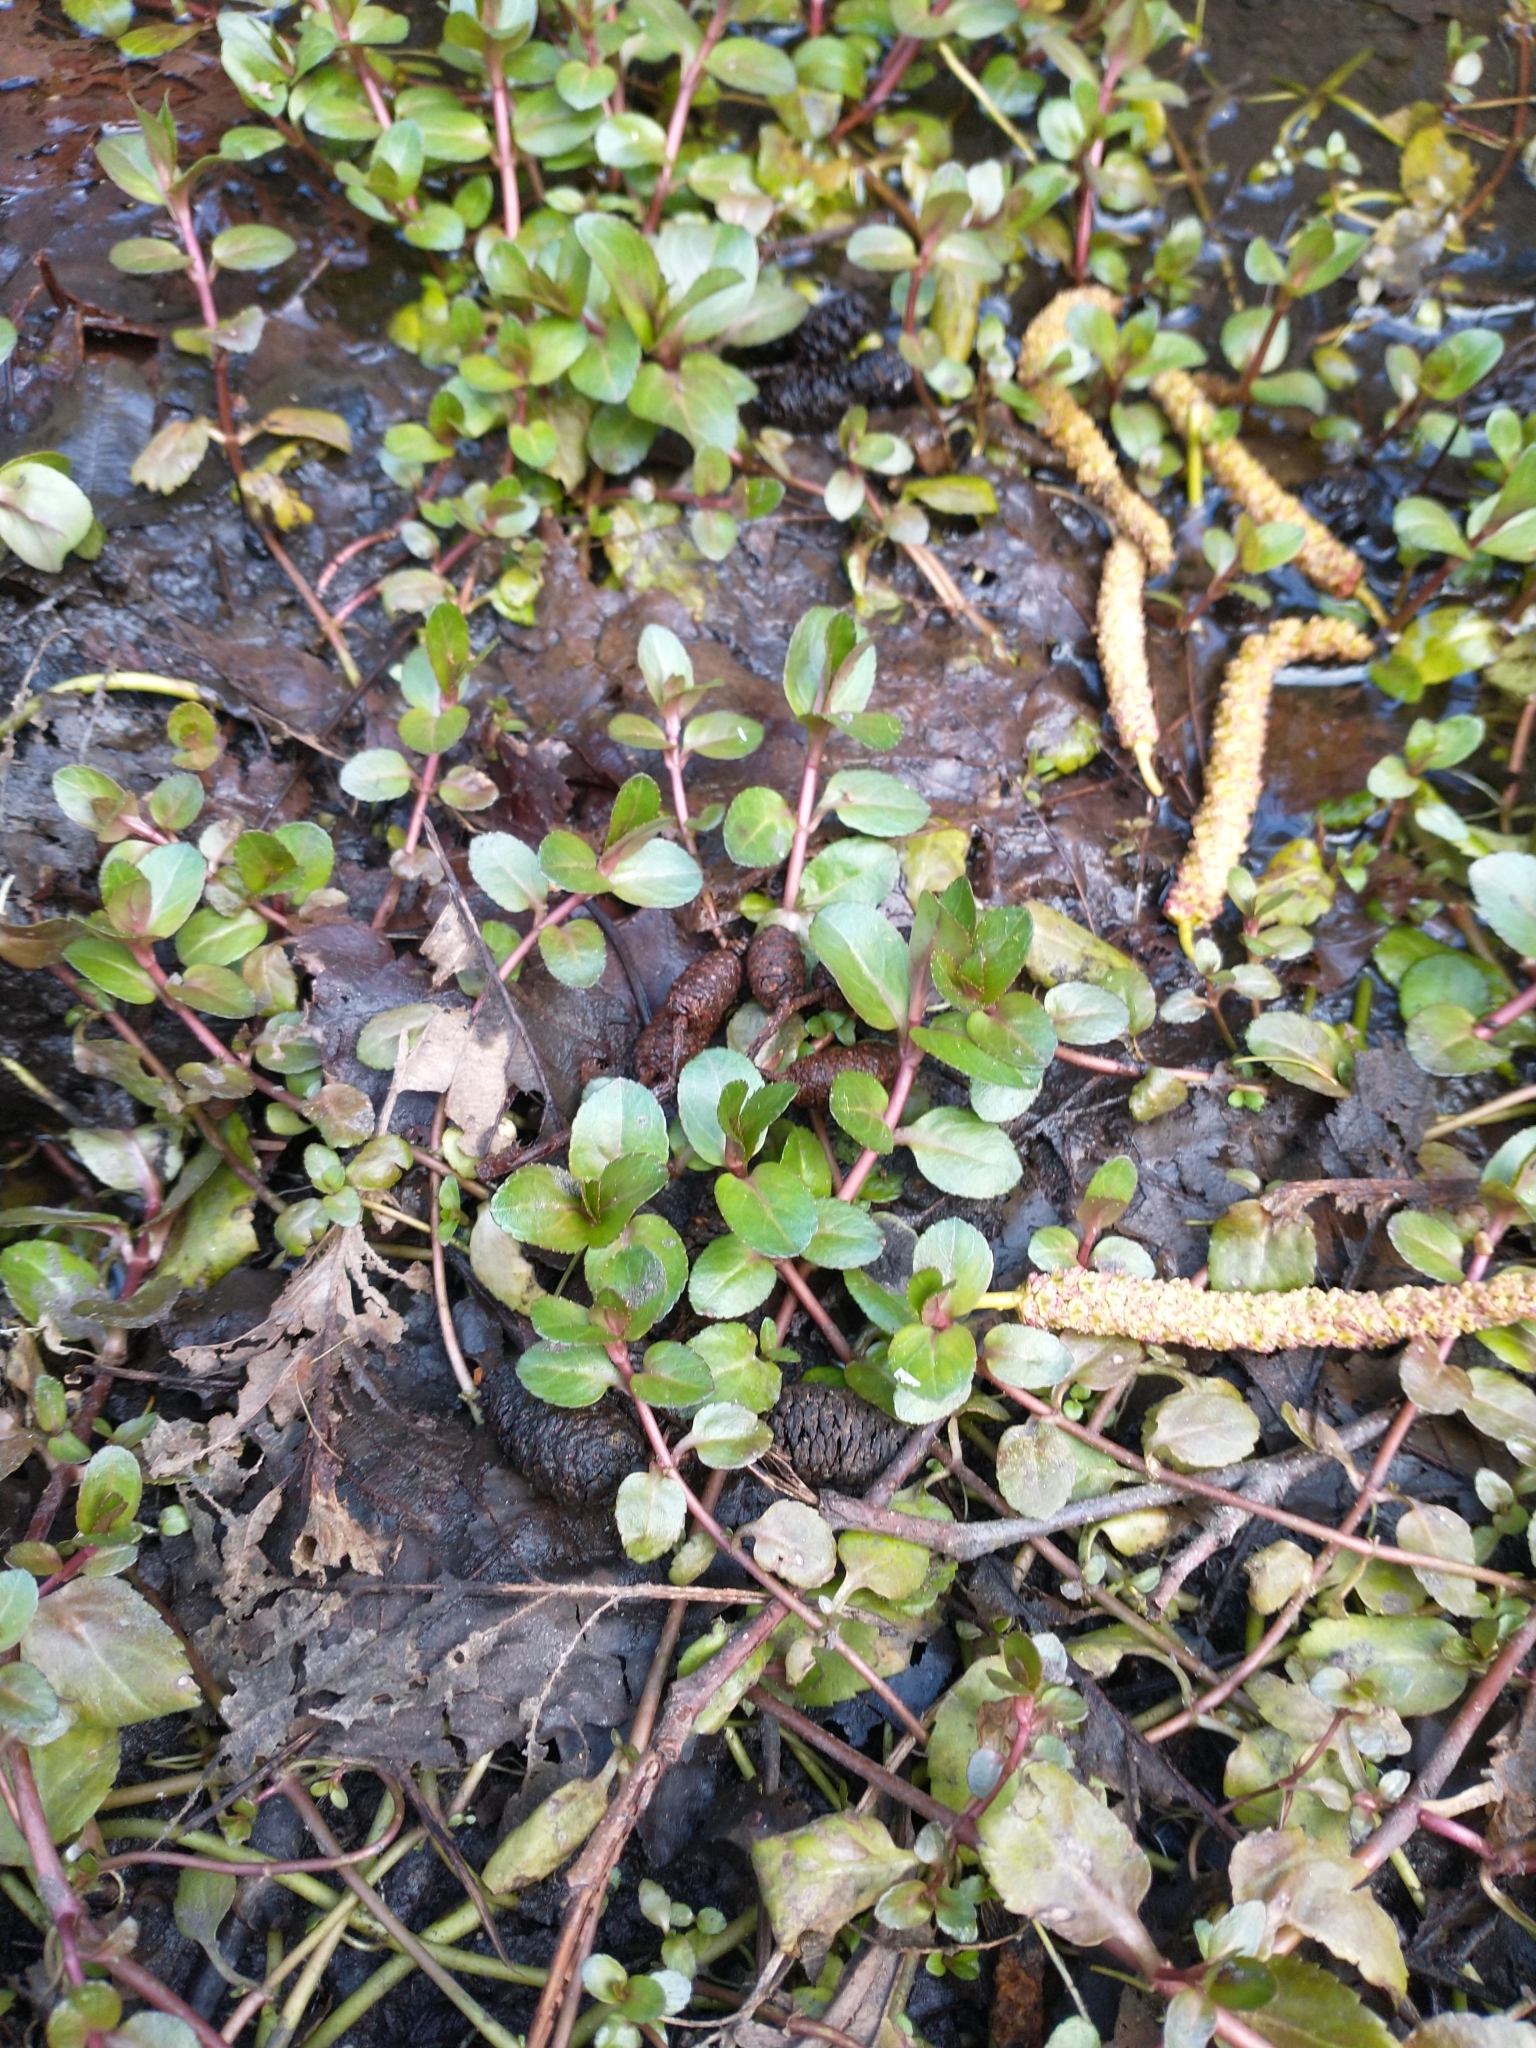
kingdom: Plantae
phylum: Tracheophyta
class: Magnoliopsida
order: Lamiales
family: Plantaginaceae
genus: Veronica
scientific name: Veronica americana
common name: American brooklime
